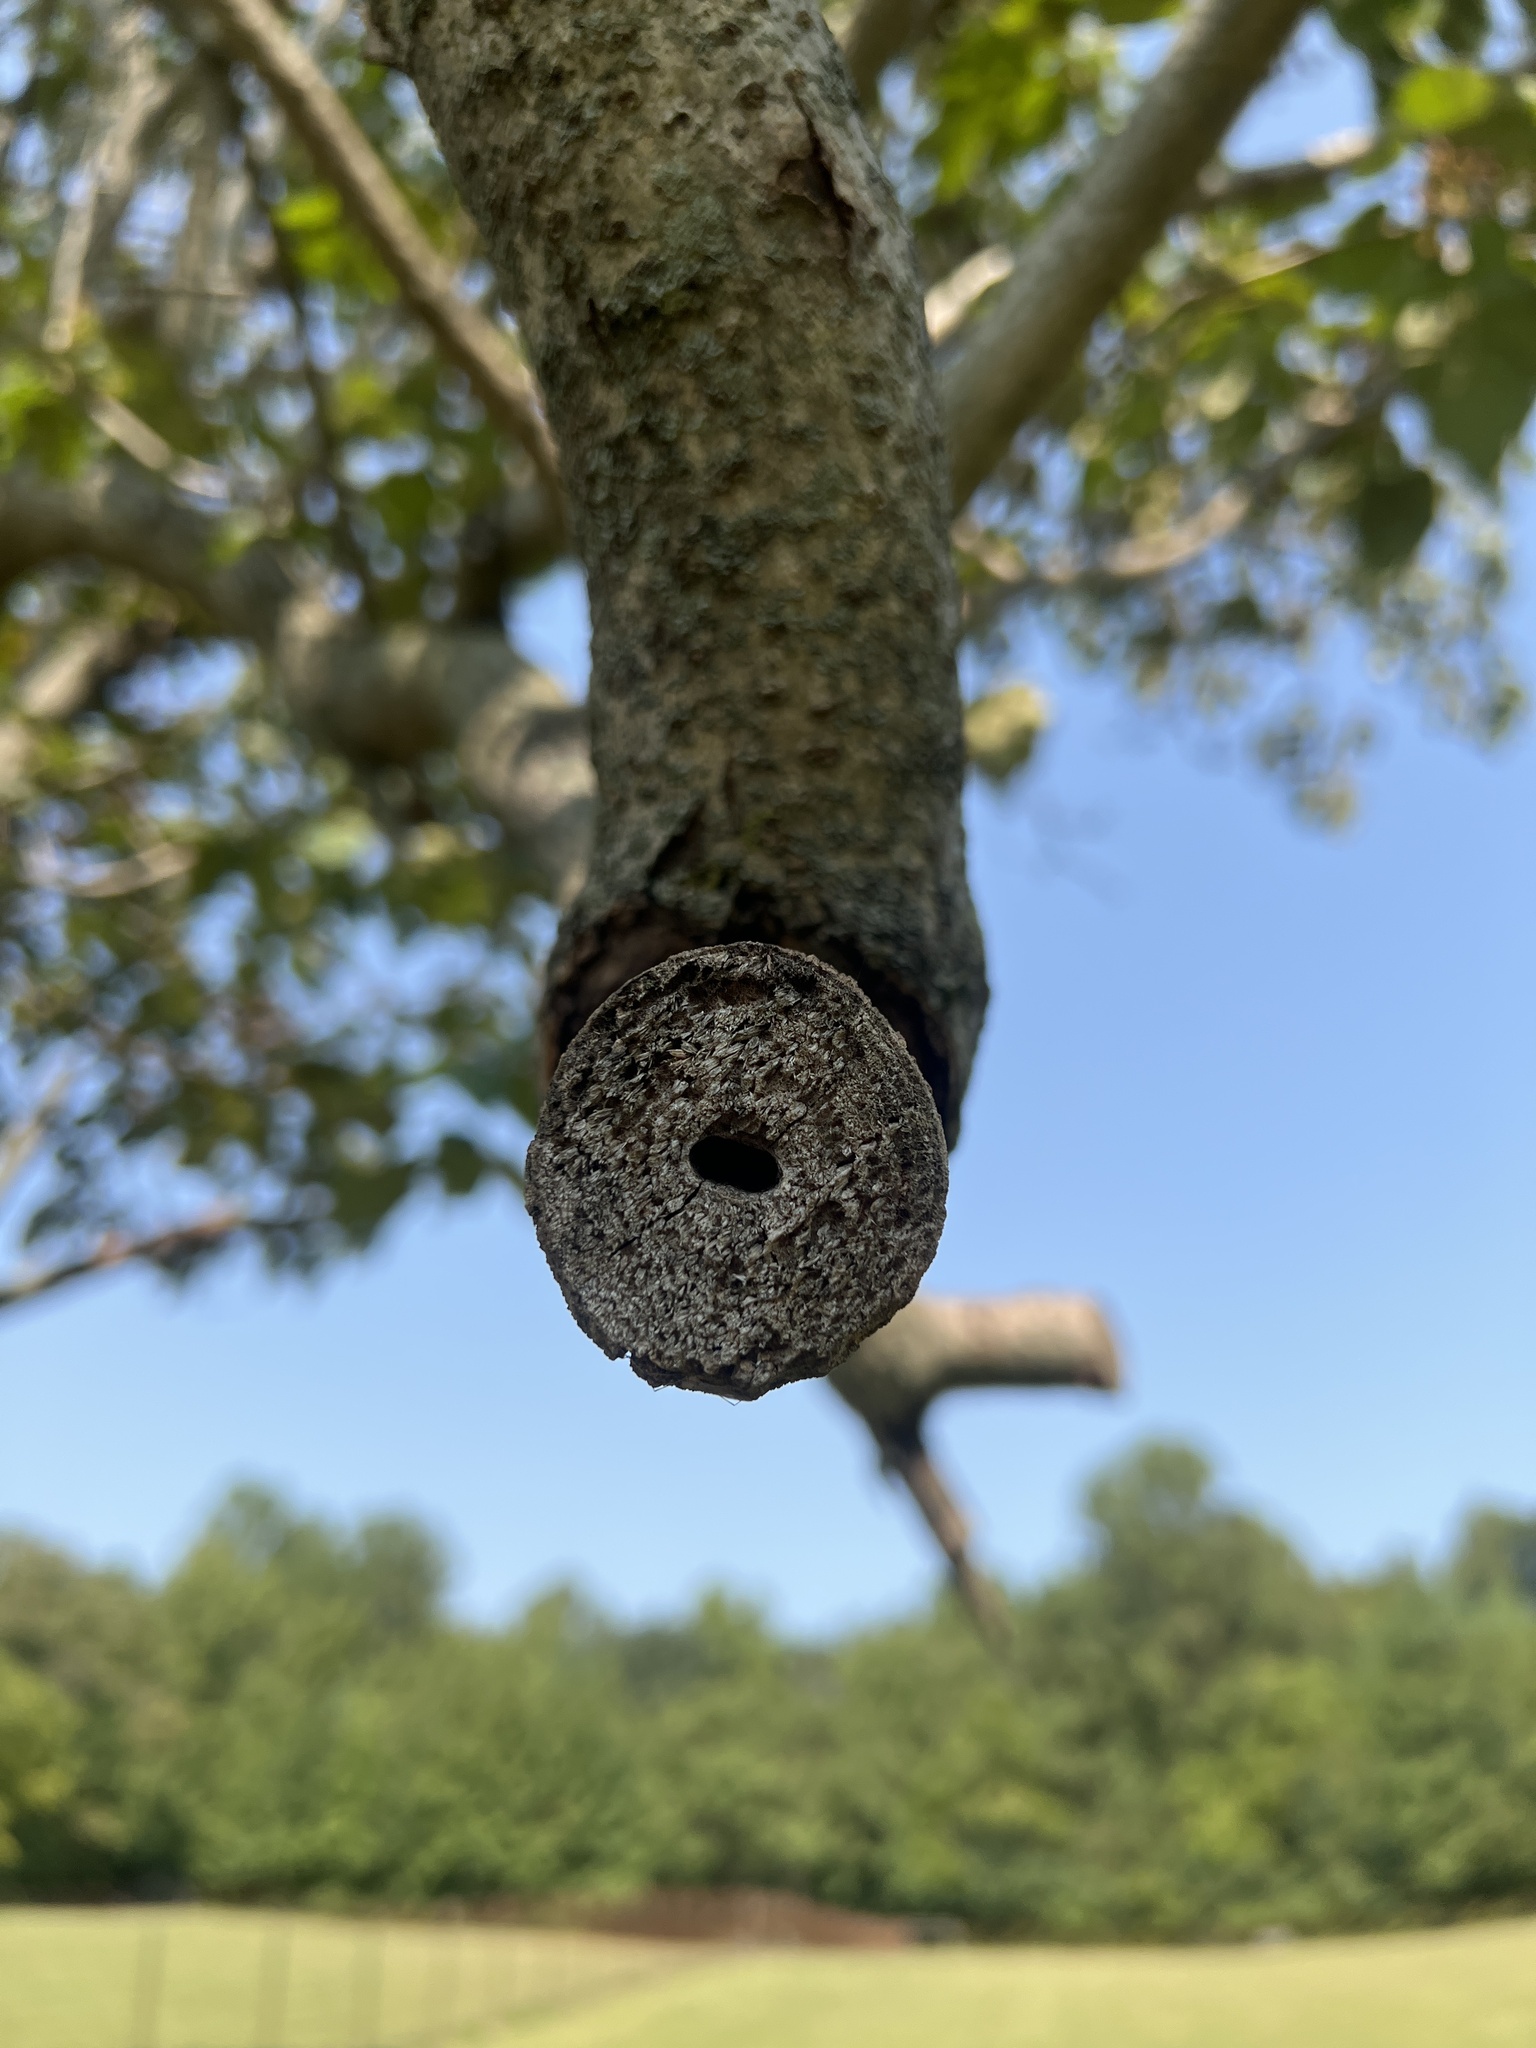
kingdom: Plantae
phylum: Tracheophyta
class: Magnoliopsida
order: Lamiales
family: Paulowniaceae
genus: Paulownia
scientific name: Paulownia tomentosa
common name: Foxglove-tree
